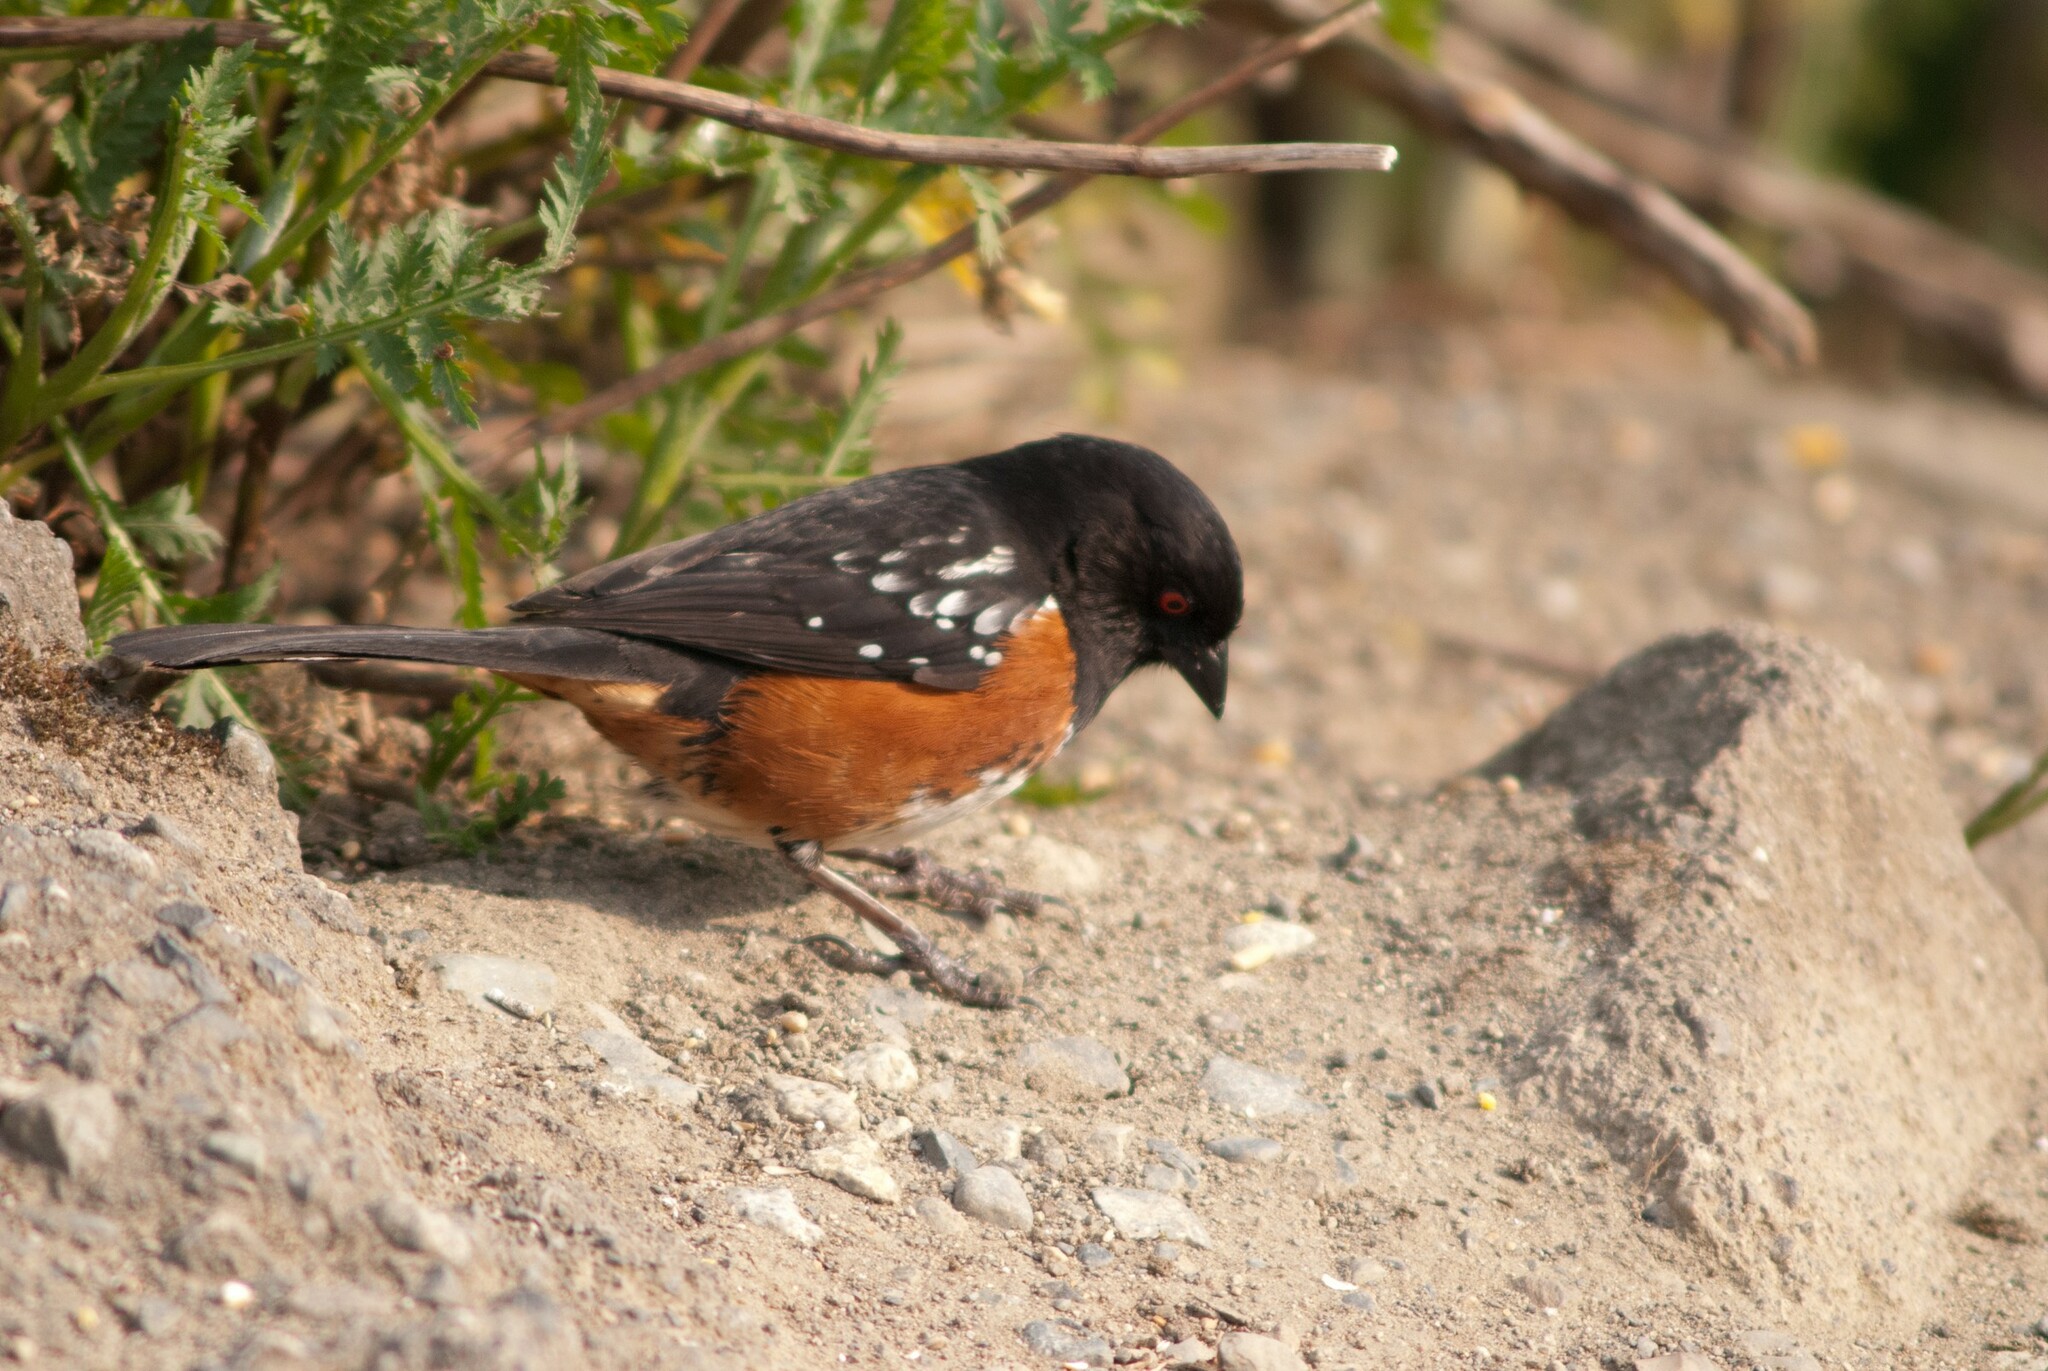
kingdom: Animalia
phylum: Chordata
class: Aves
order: Passeriformes
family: Passerellidae
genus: Pipilo
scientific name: Pipilo maculatus
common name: Spotted towhee
